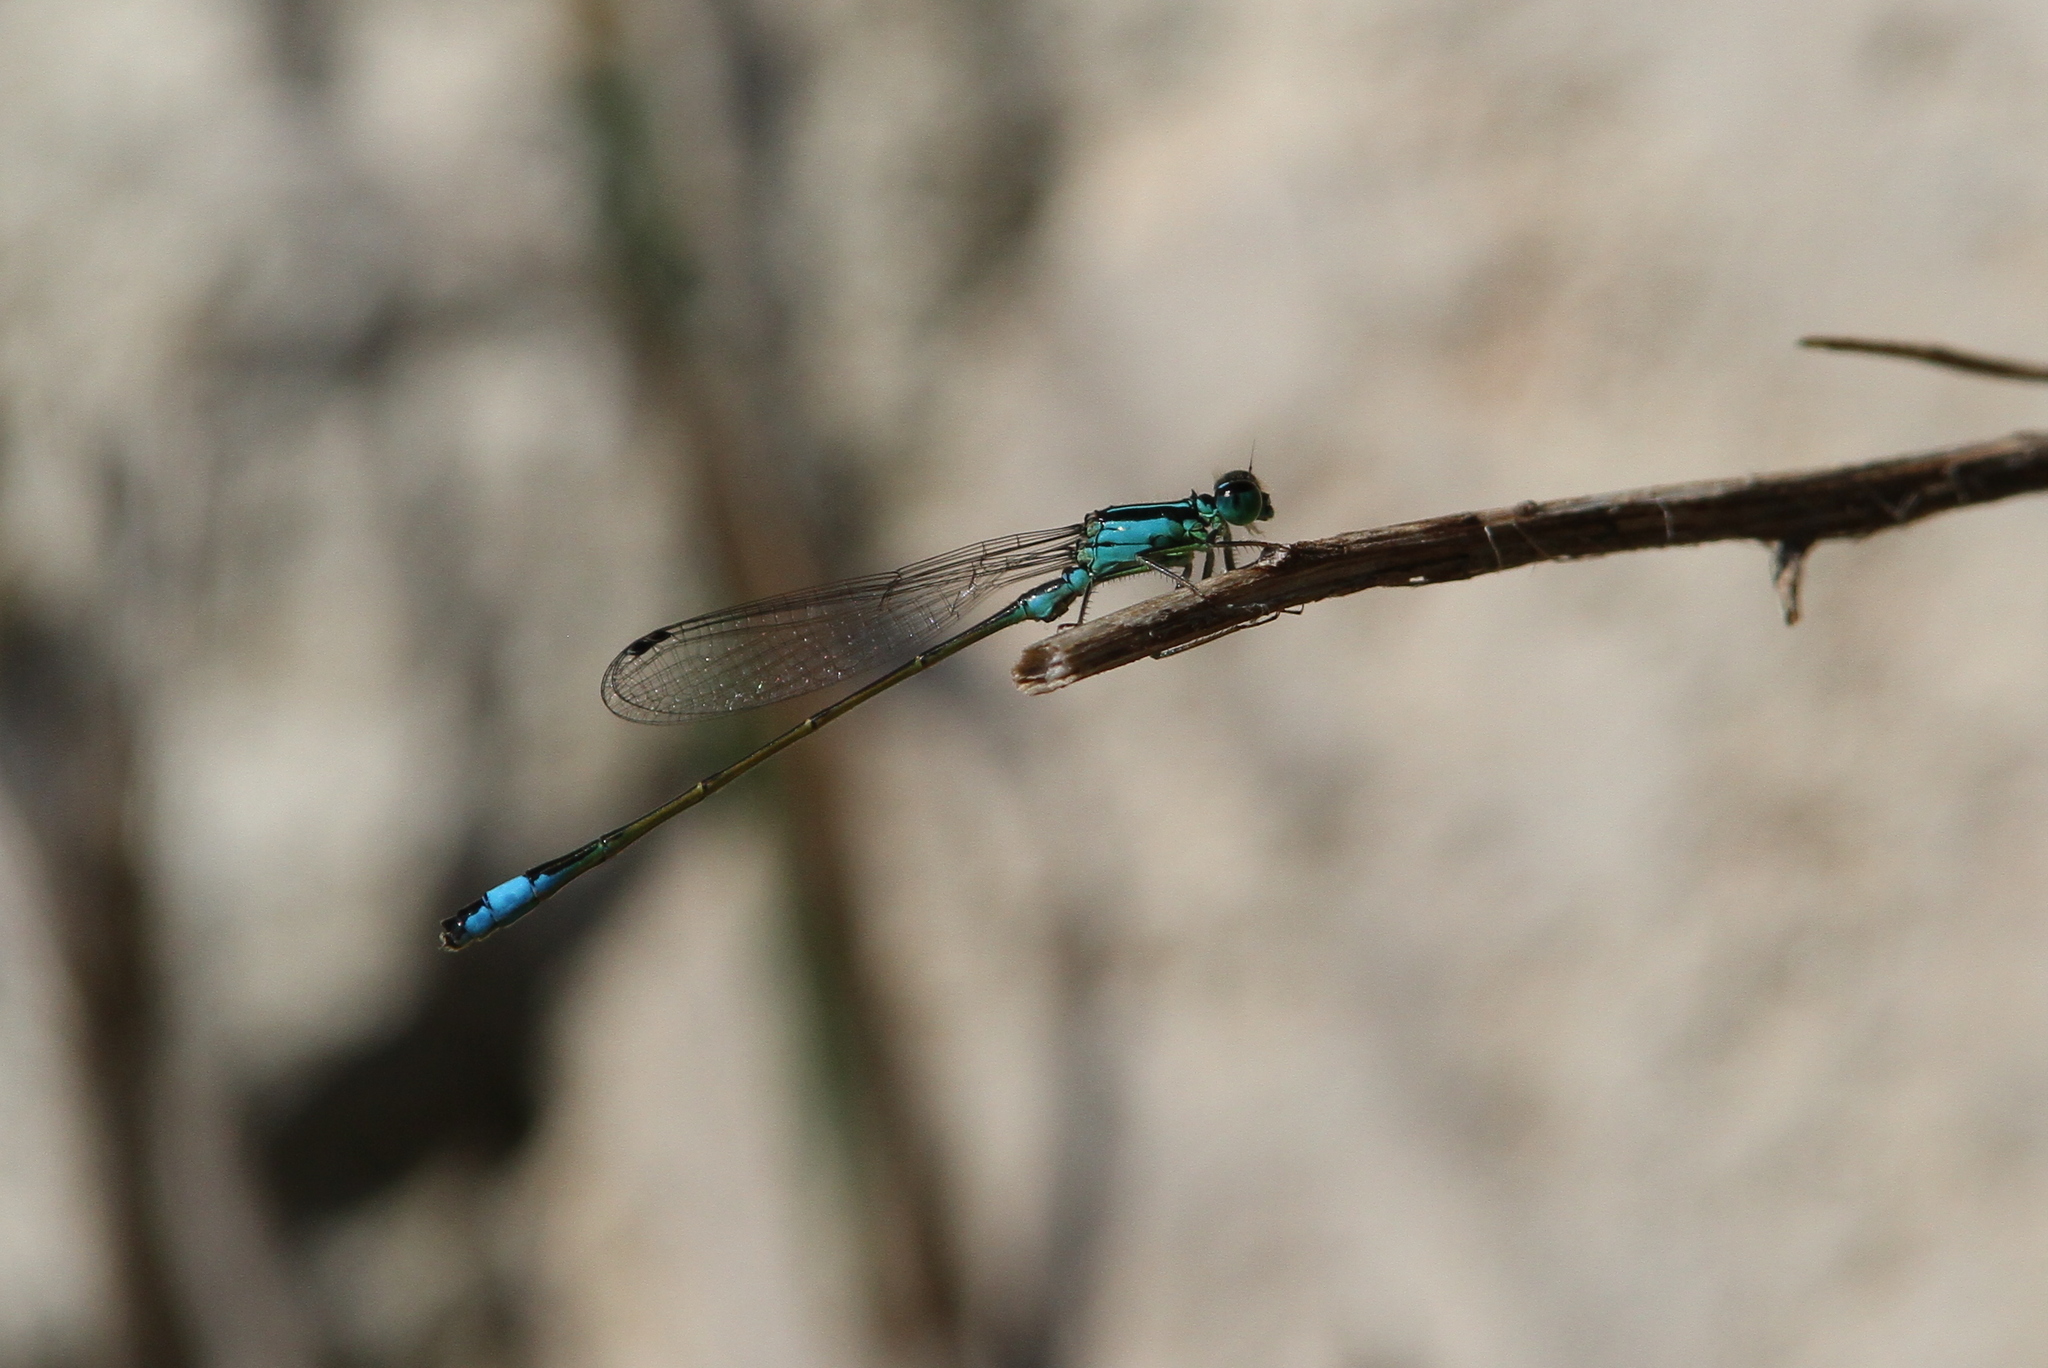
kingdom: Animalia
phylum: Arthropoda
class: Insecta
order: Odonata
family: Coenagrionidae
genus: Ischnura
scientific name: Ischnura elegans
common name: Blue-tailed damselfly
